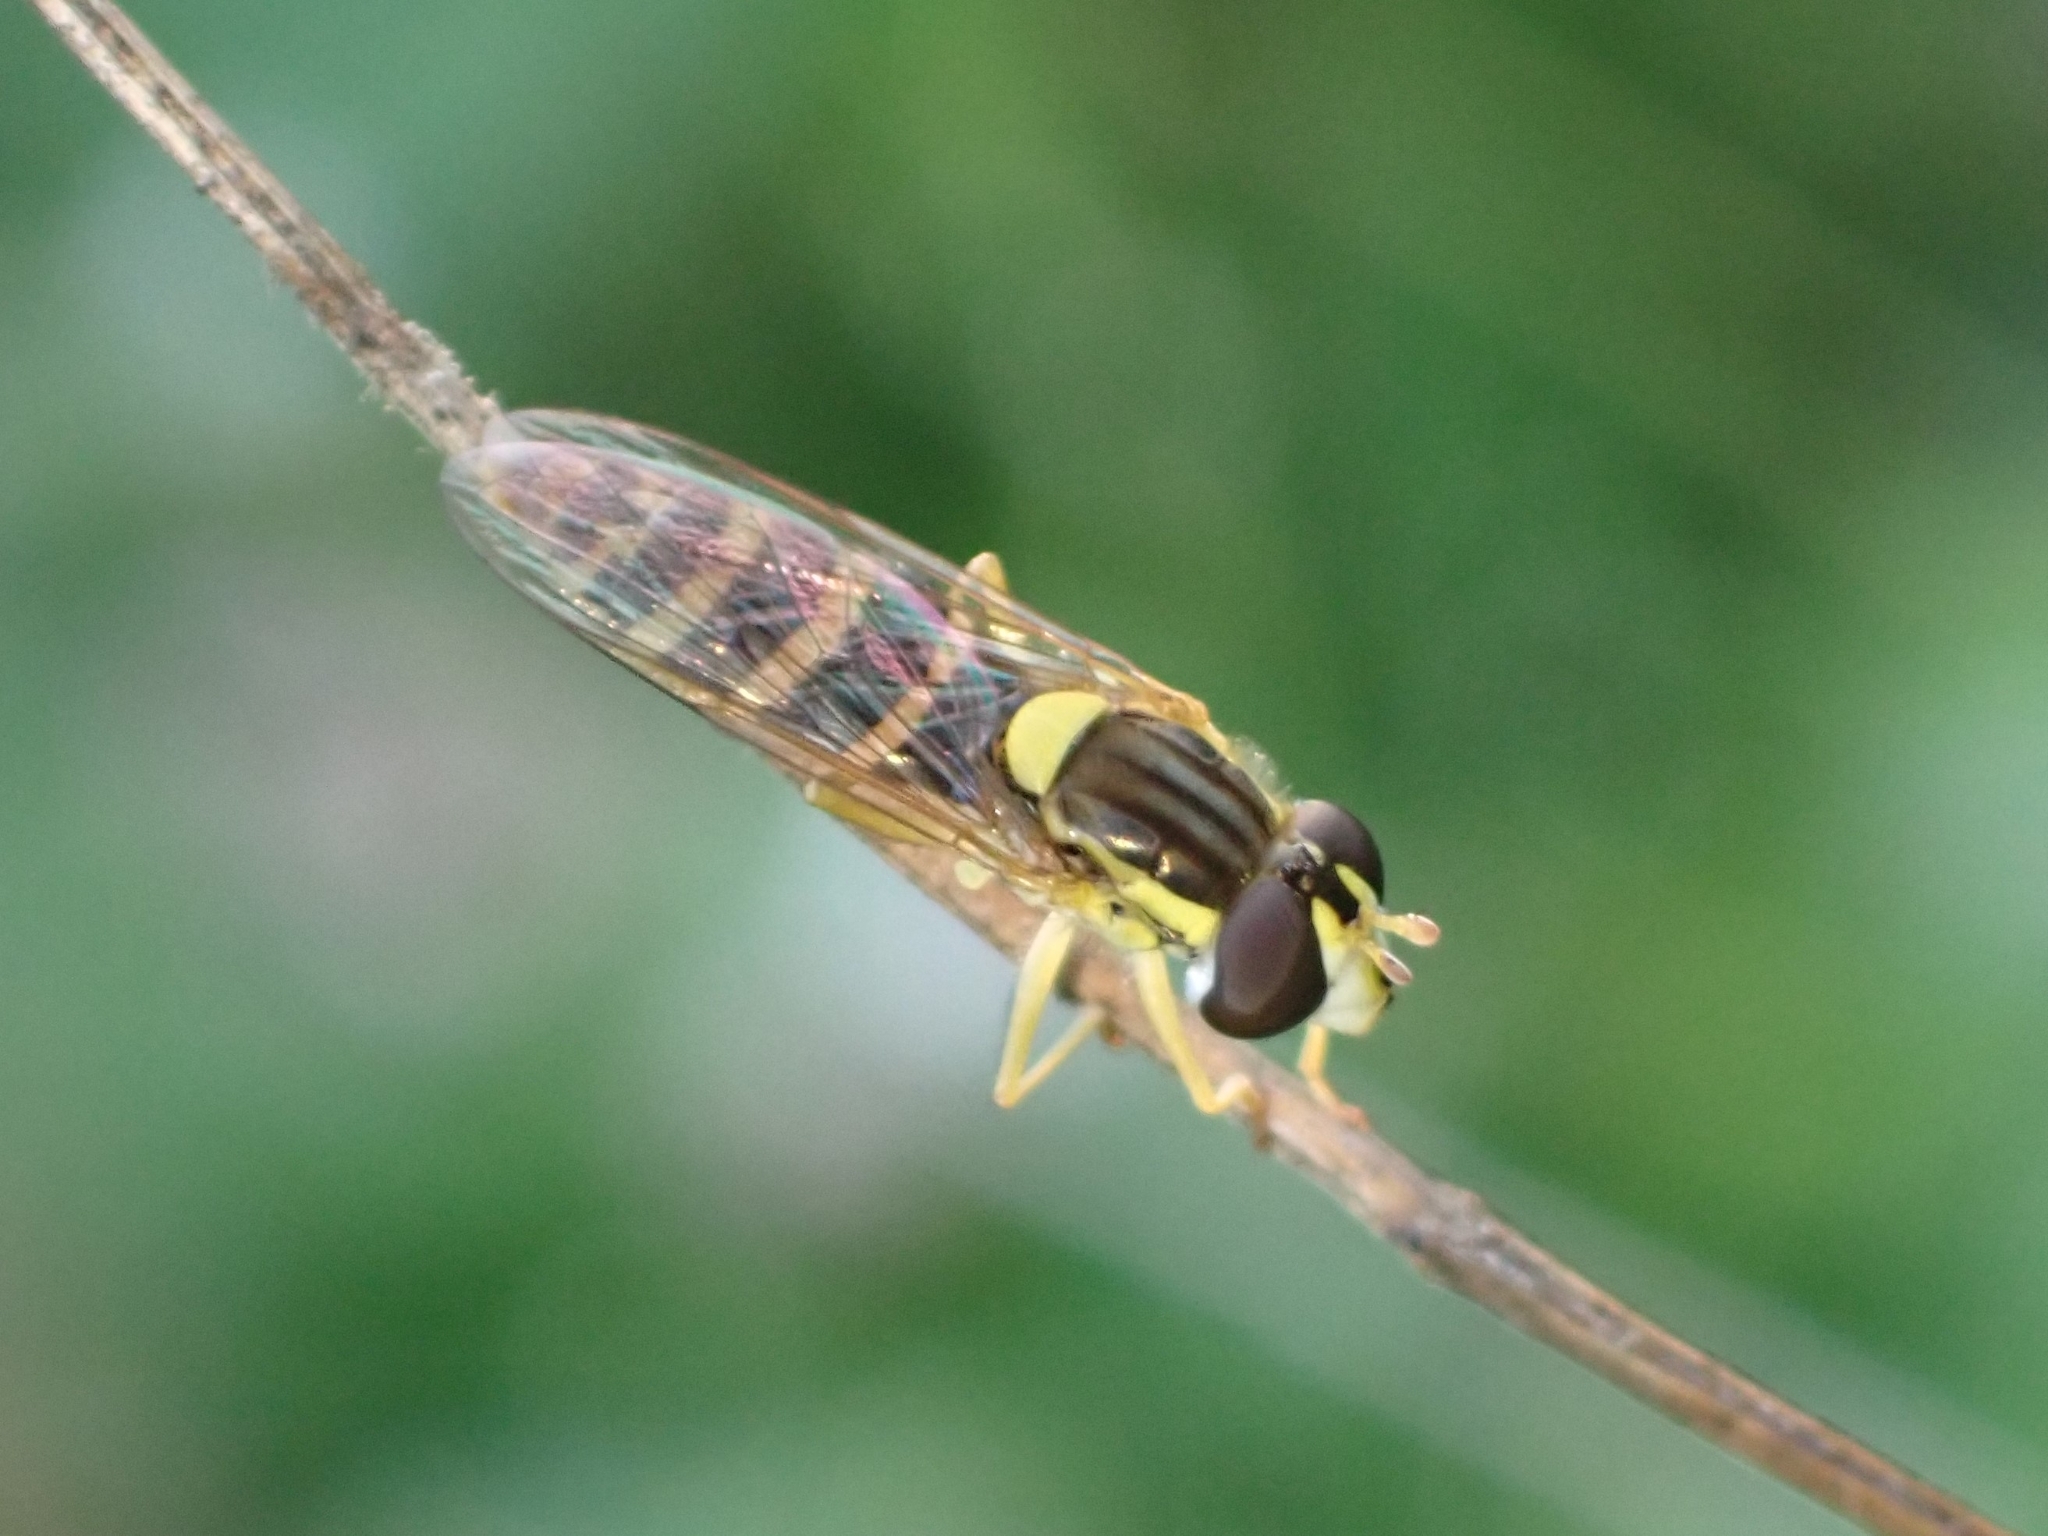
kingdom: Animalia
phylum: Arthropoda
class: Insecta
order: Diptera
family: Syrphidae
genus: Sphaerophoria
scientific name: Sphaerophoria
